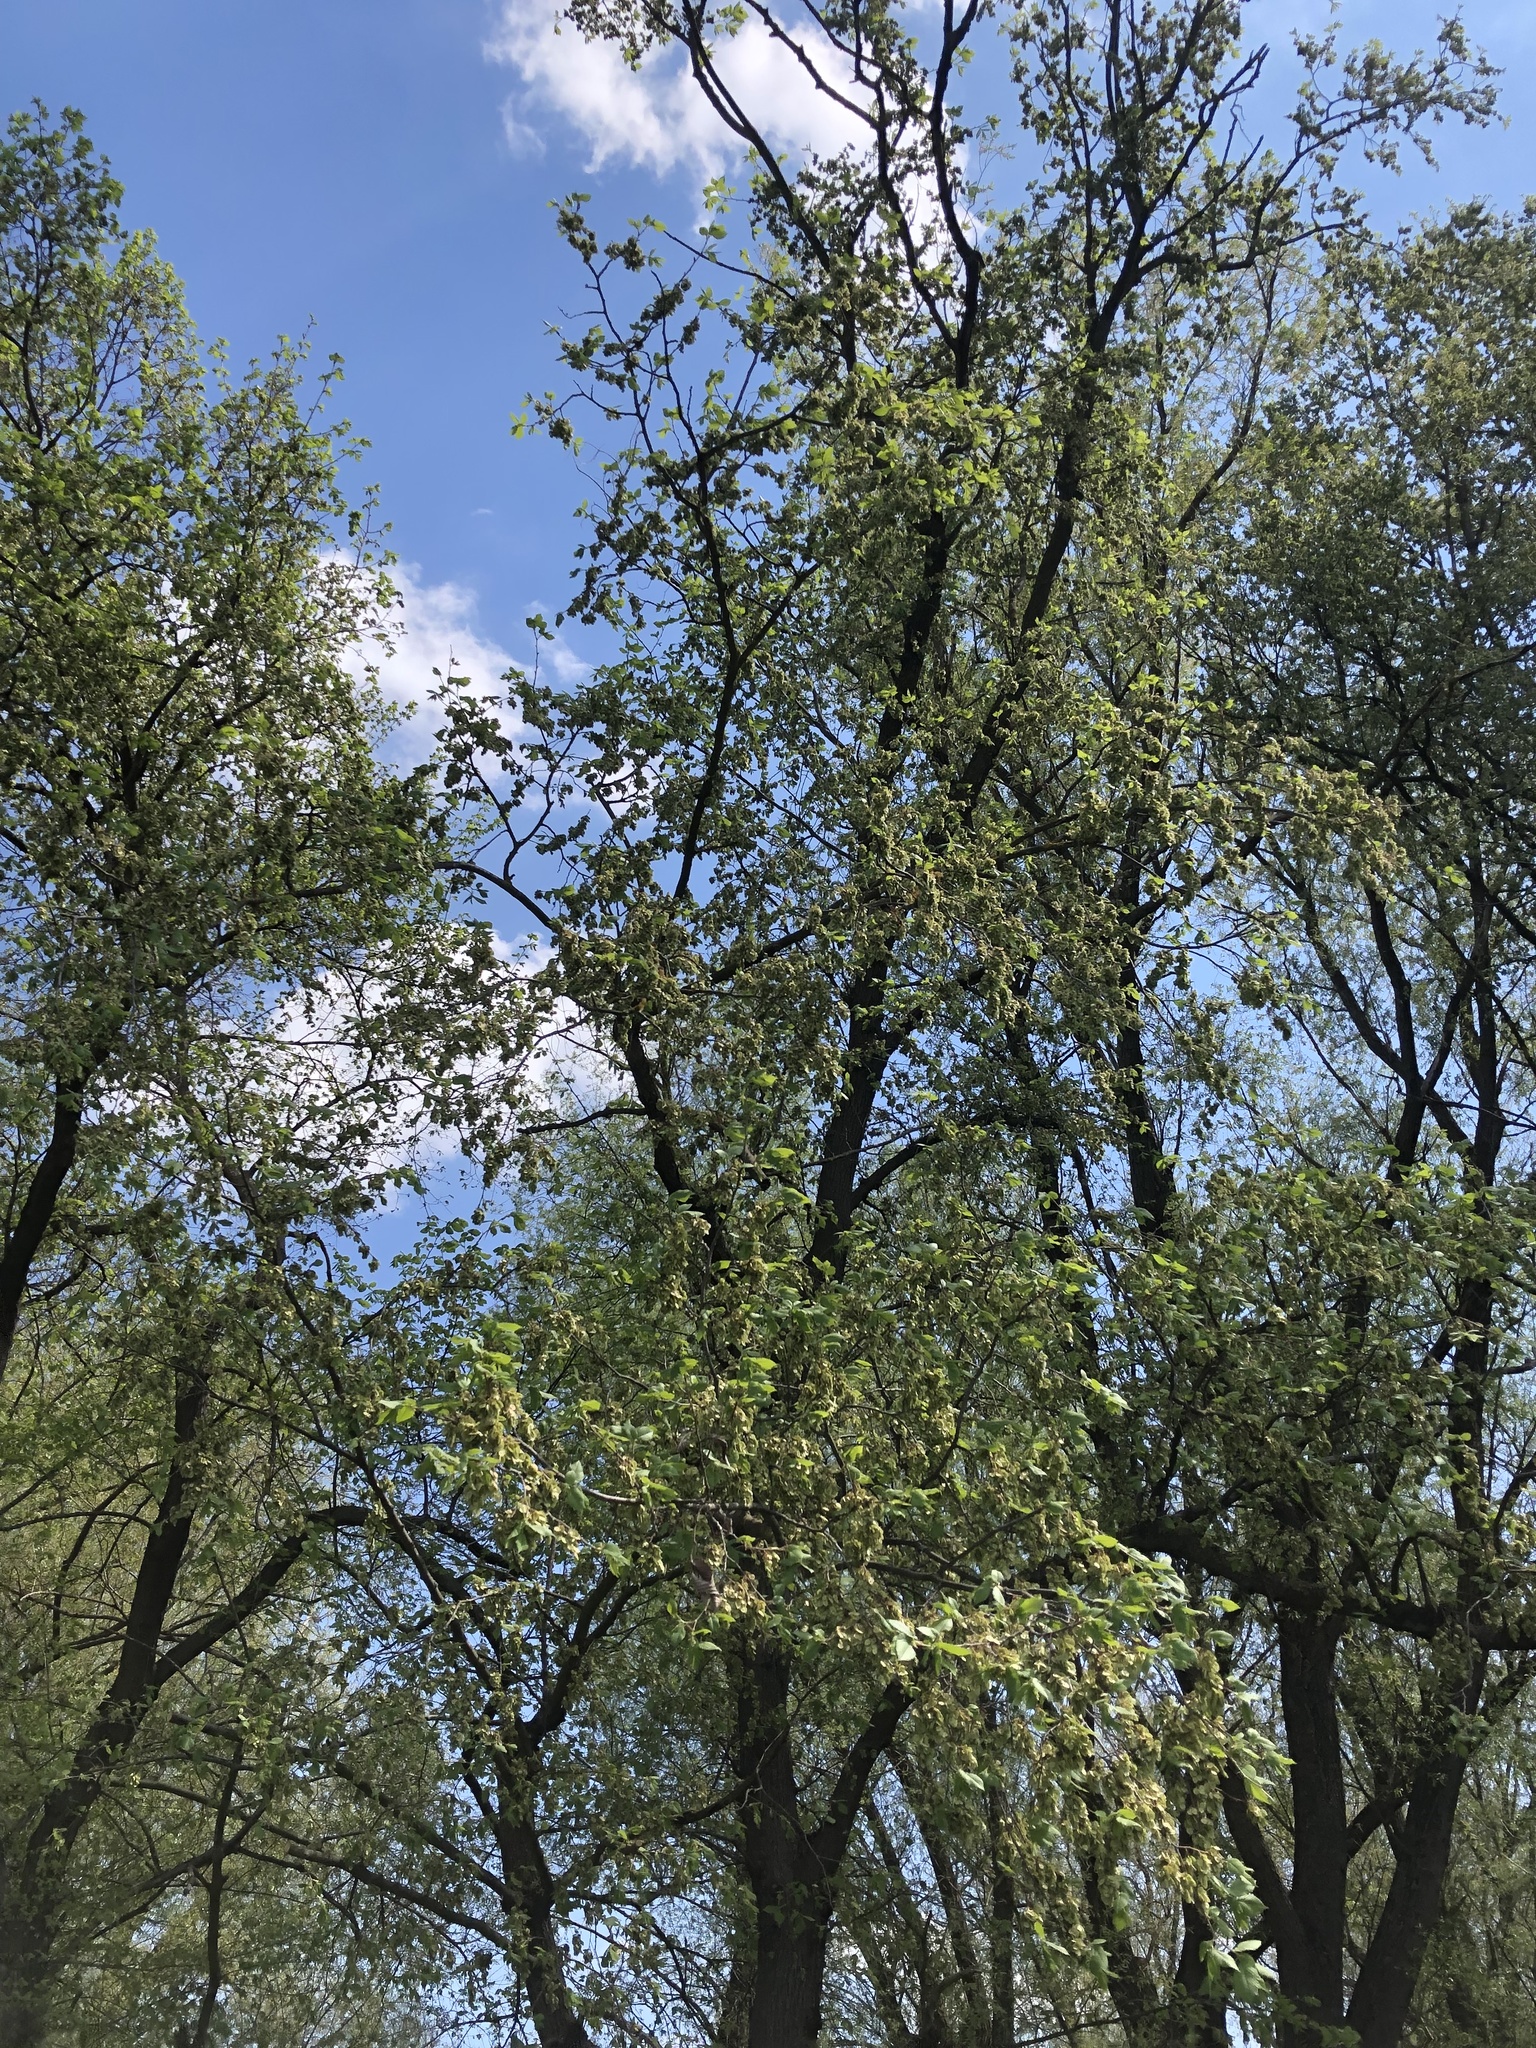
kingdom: Plantae
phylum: Tracheophyta
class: Magnoliopsida
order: Rosales
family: Ulmaceae
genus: Ulmus
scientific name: Ulmus laevis
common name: European white-elm
